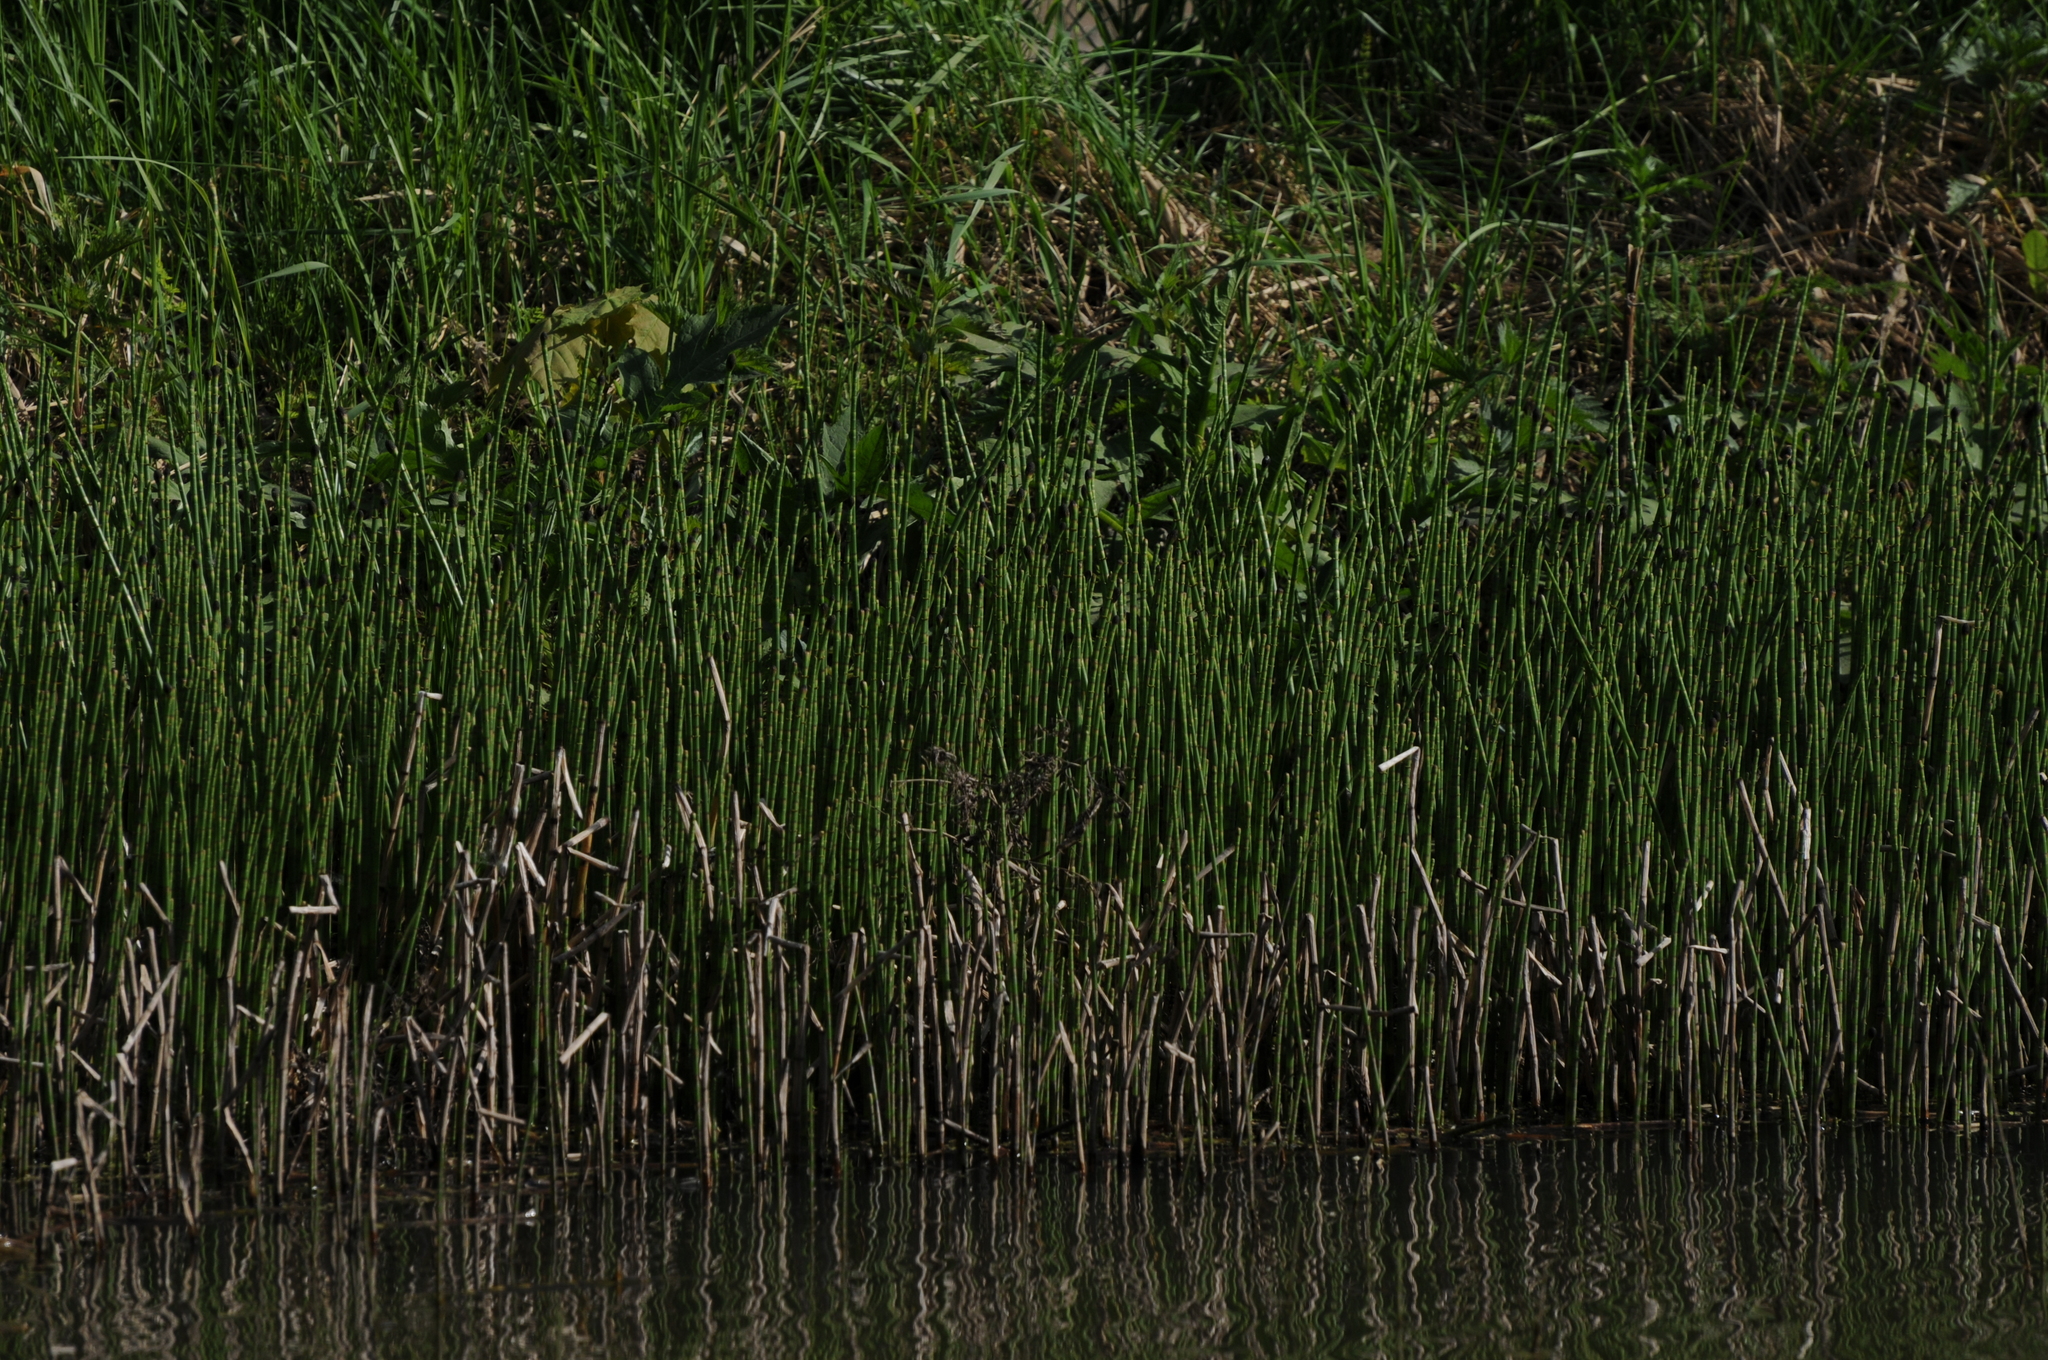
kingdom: Plantae
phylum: Tracheophyta
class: Polypodiopsida
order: Equisetales
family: Equisetaceae
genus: Equisetum
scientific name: Equisetum fluviatile
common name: Water horsetail
